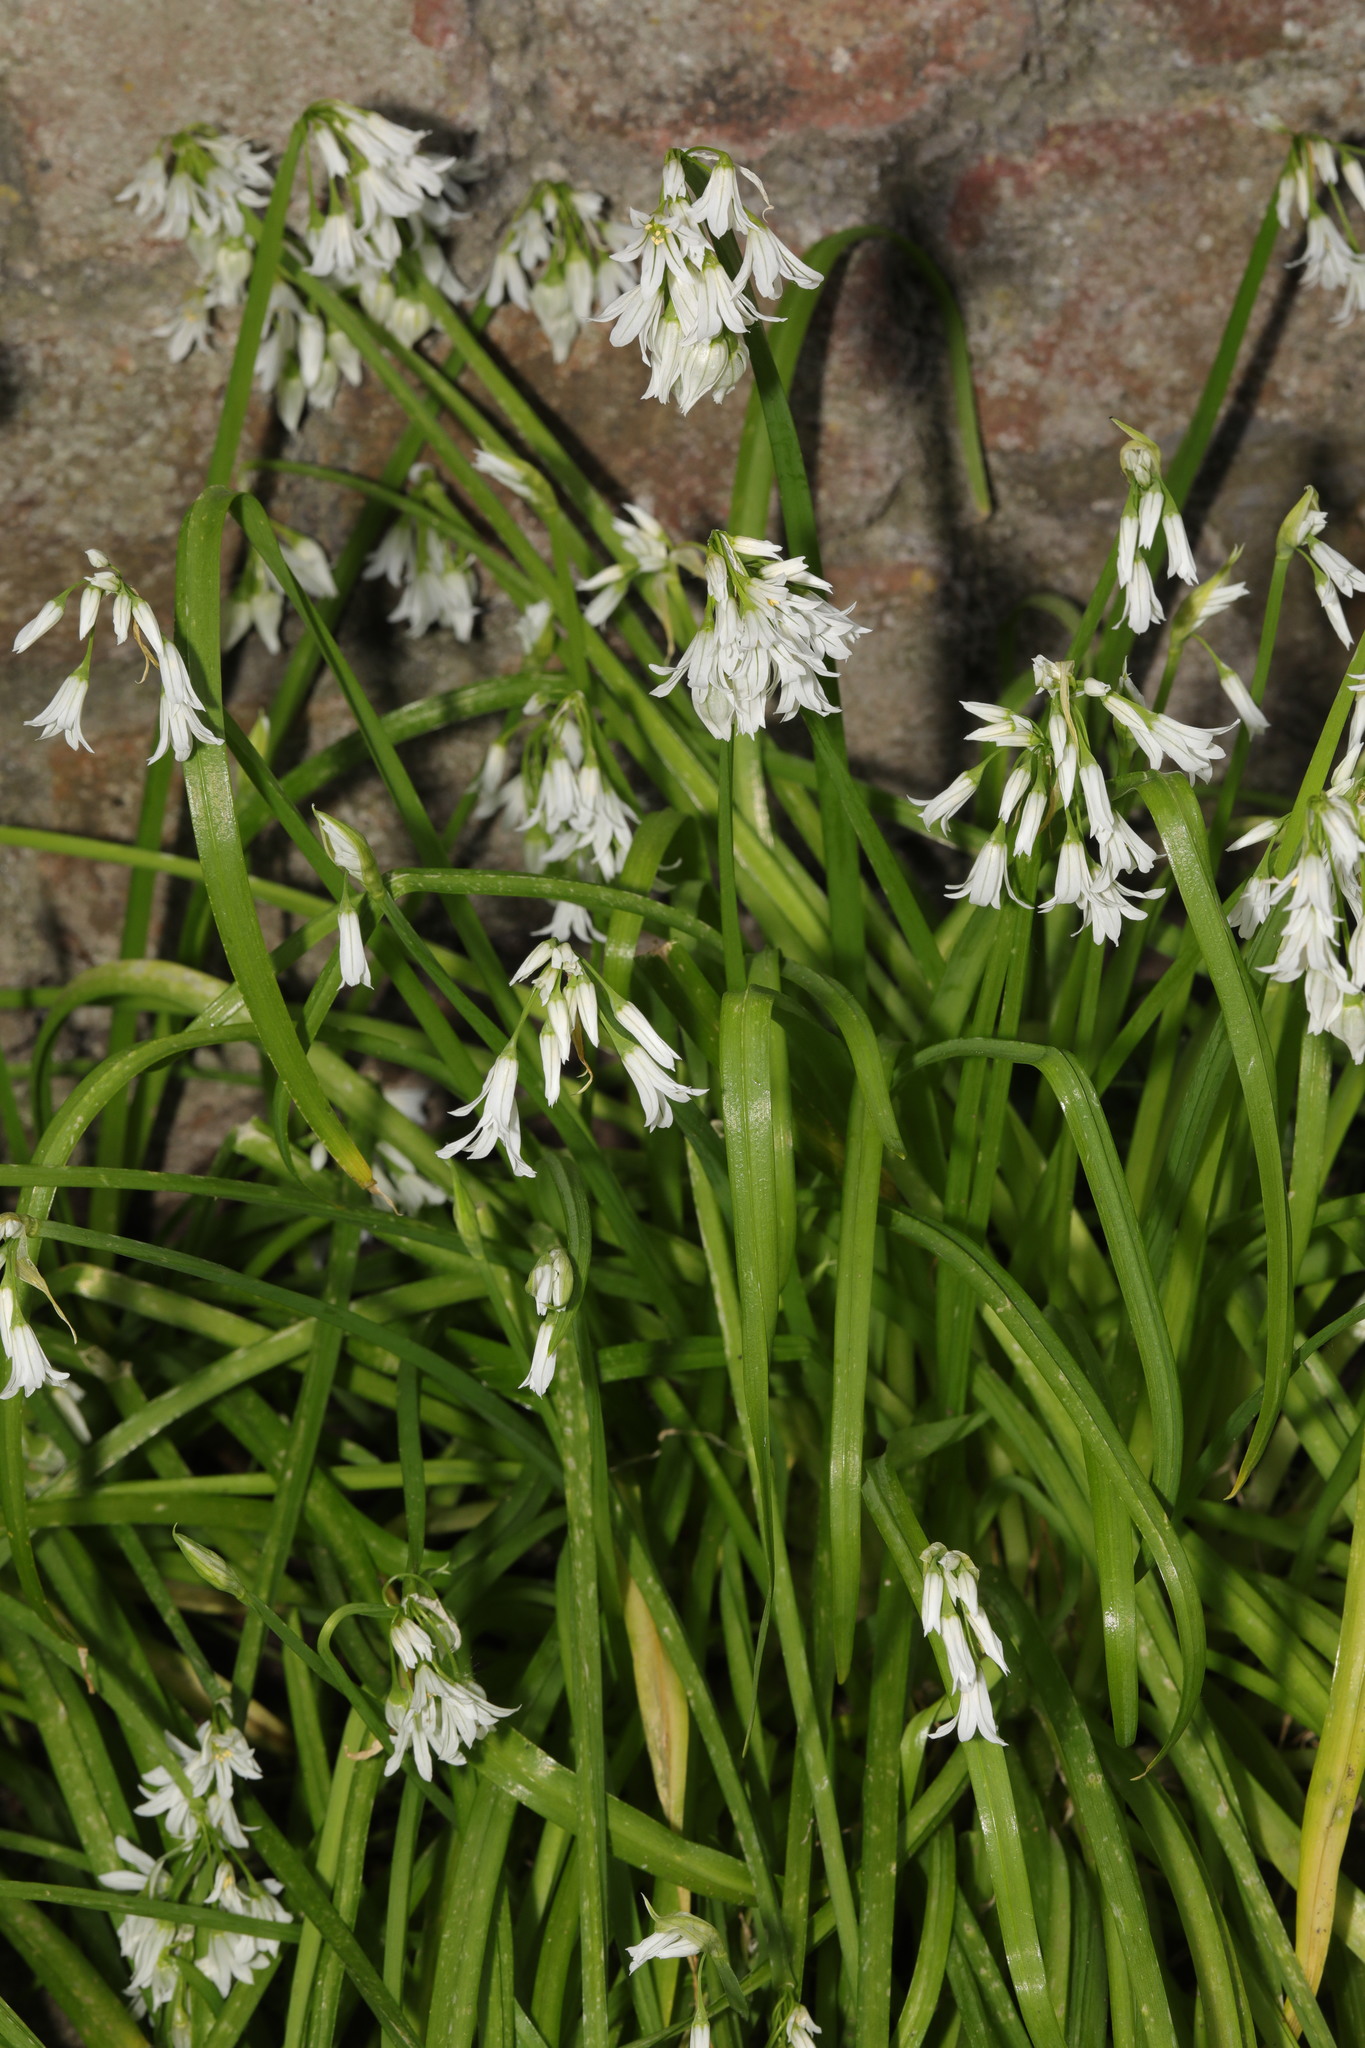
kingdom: Plantae
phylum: Tracheophyta
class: Liliopsida
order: Asparagales
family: Amaryllidaceae
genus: Allium
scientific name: Allium triquetrum
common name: Three-cornered garlic
